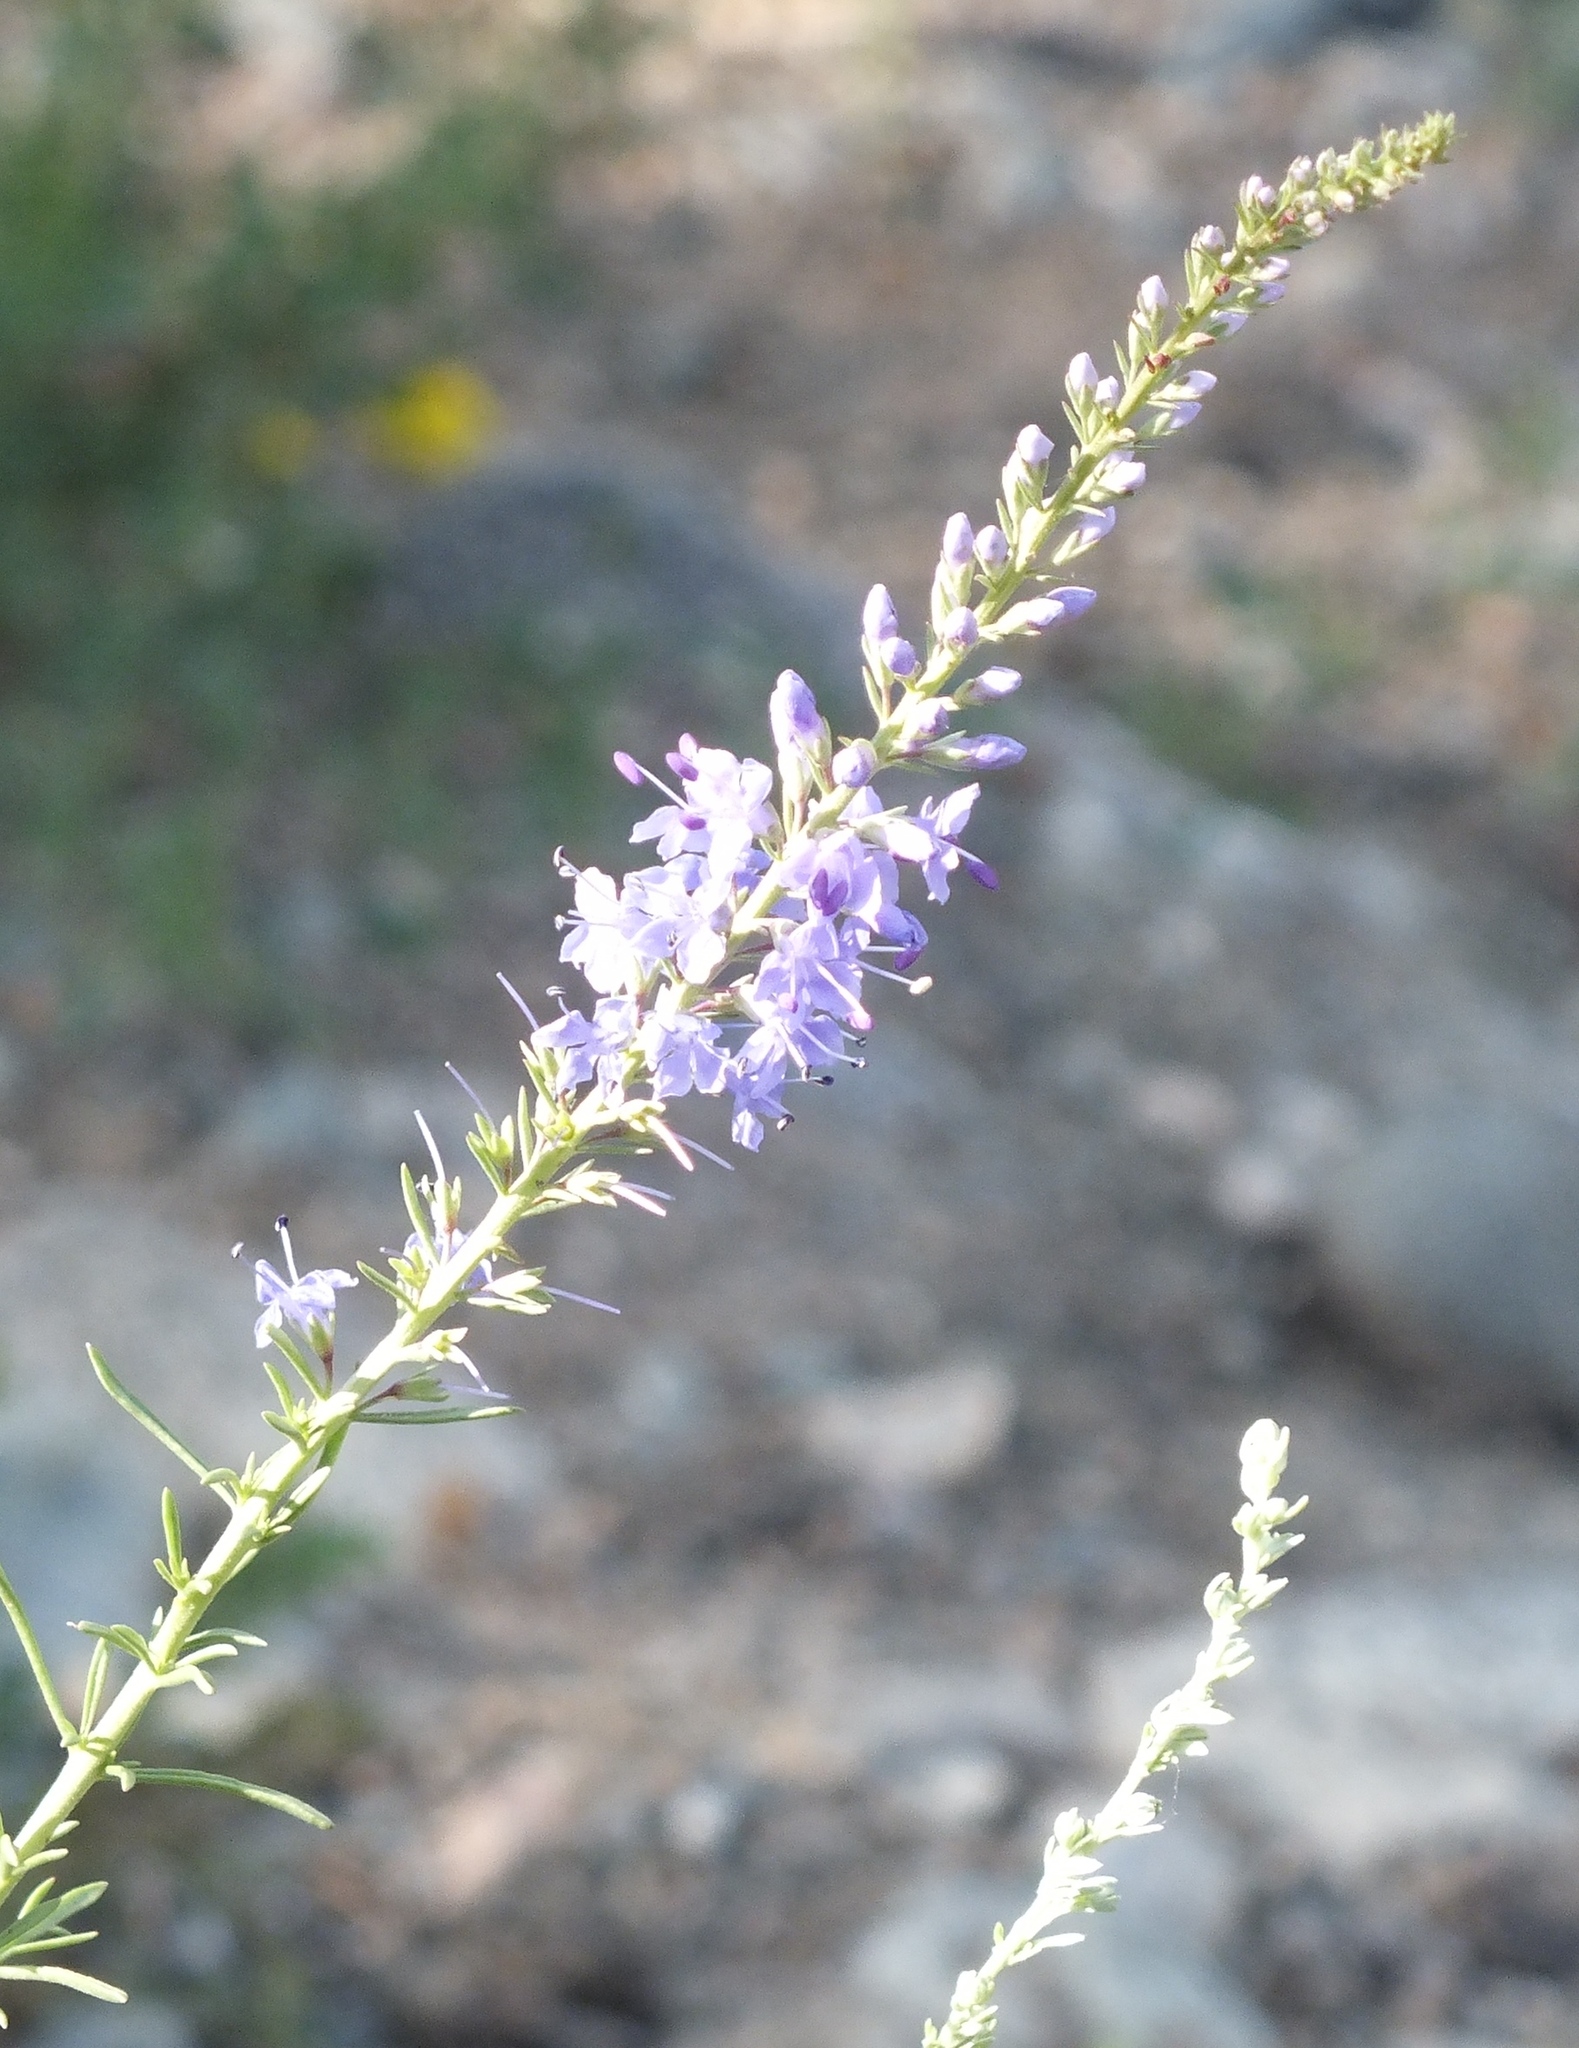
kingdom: Plantae
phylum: Tracheophyta
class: Magnoliopsida
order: Lamiales
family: Plantaginaceae
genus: Veronica
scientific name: Veronica pinnata
